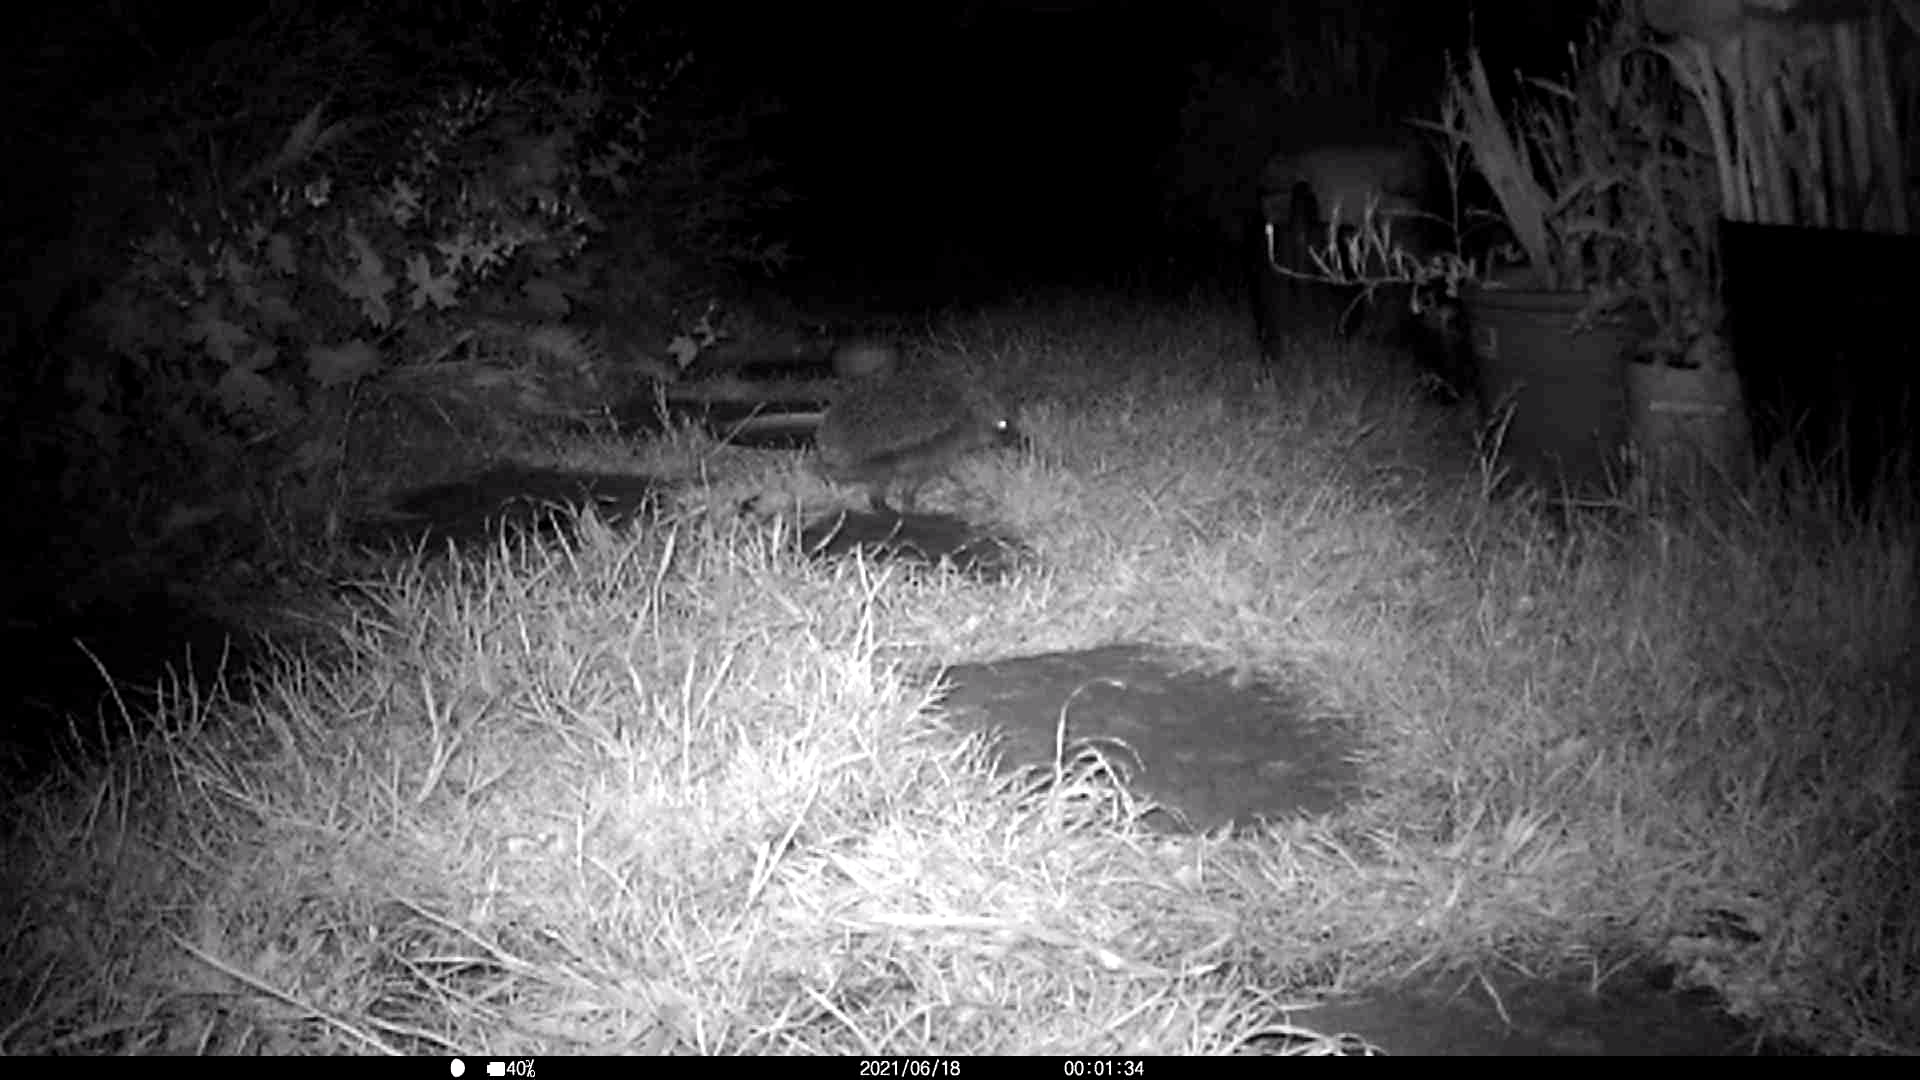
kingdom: Animalia
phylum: Chordata
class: Mammalia
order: Erinaceomorpha
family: Erinaceidae
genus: Erinaceus
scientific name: Erinaceus europaeus
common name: West european hedgehog
